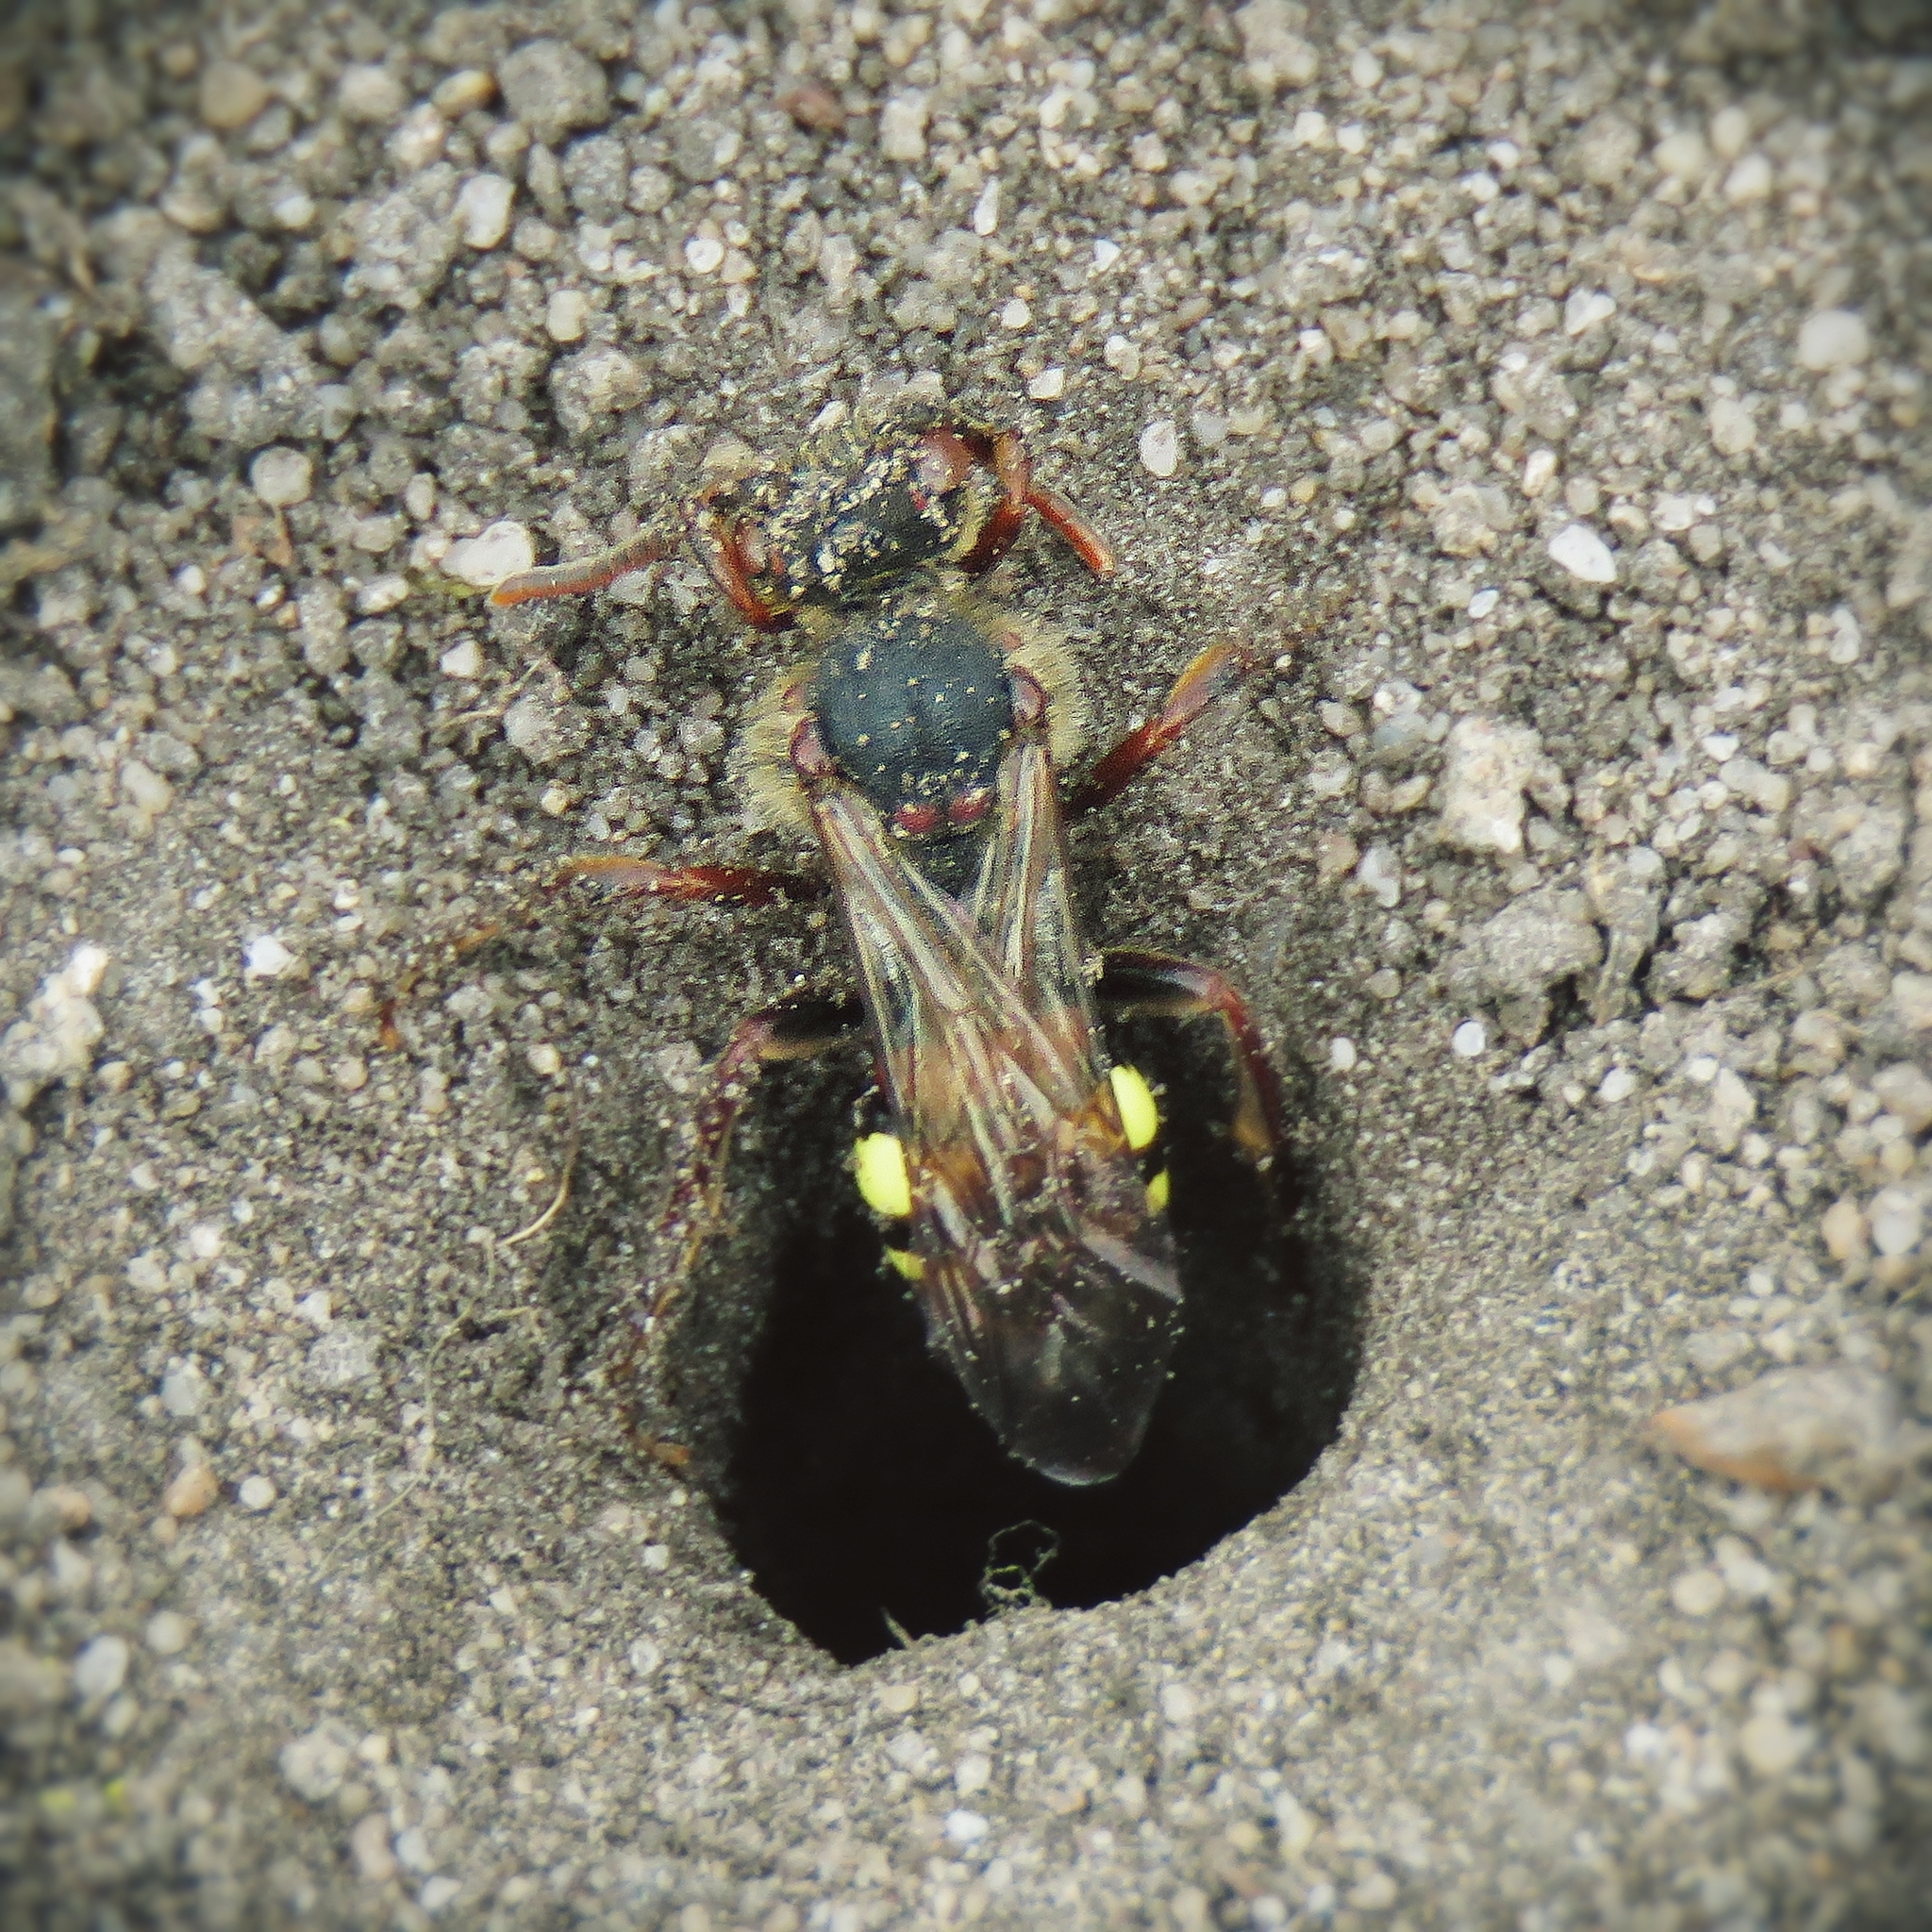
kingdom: Animalia
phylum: Arthropoda
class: Insecta
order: Hymenoptera
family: Apidae
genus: Nomada
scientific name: Nomada leucophthalma
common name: Early nomad bee
